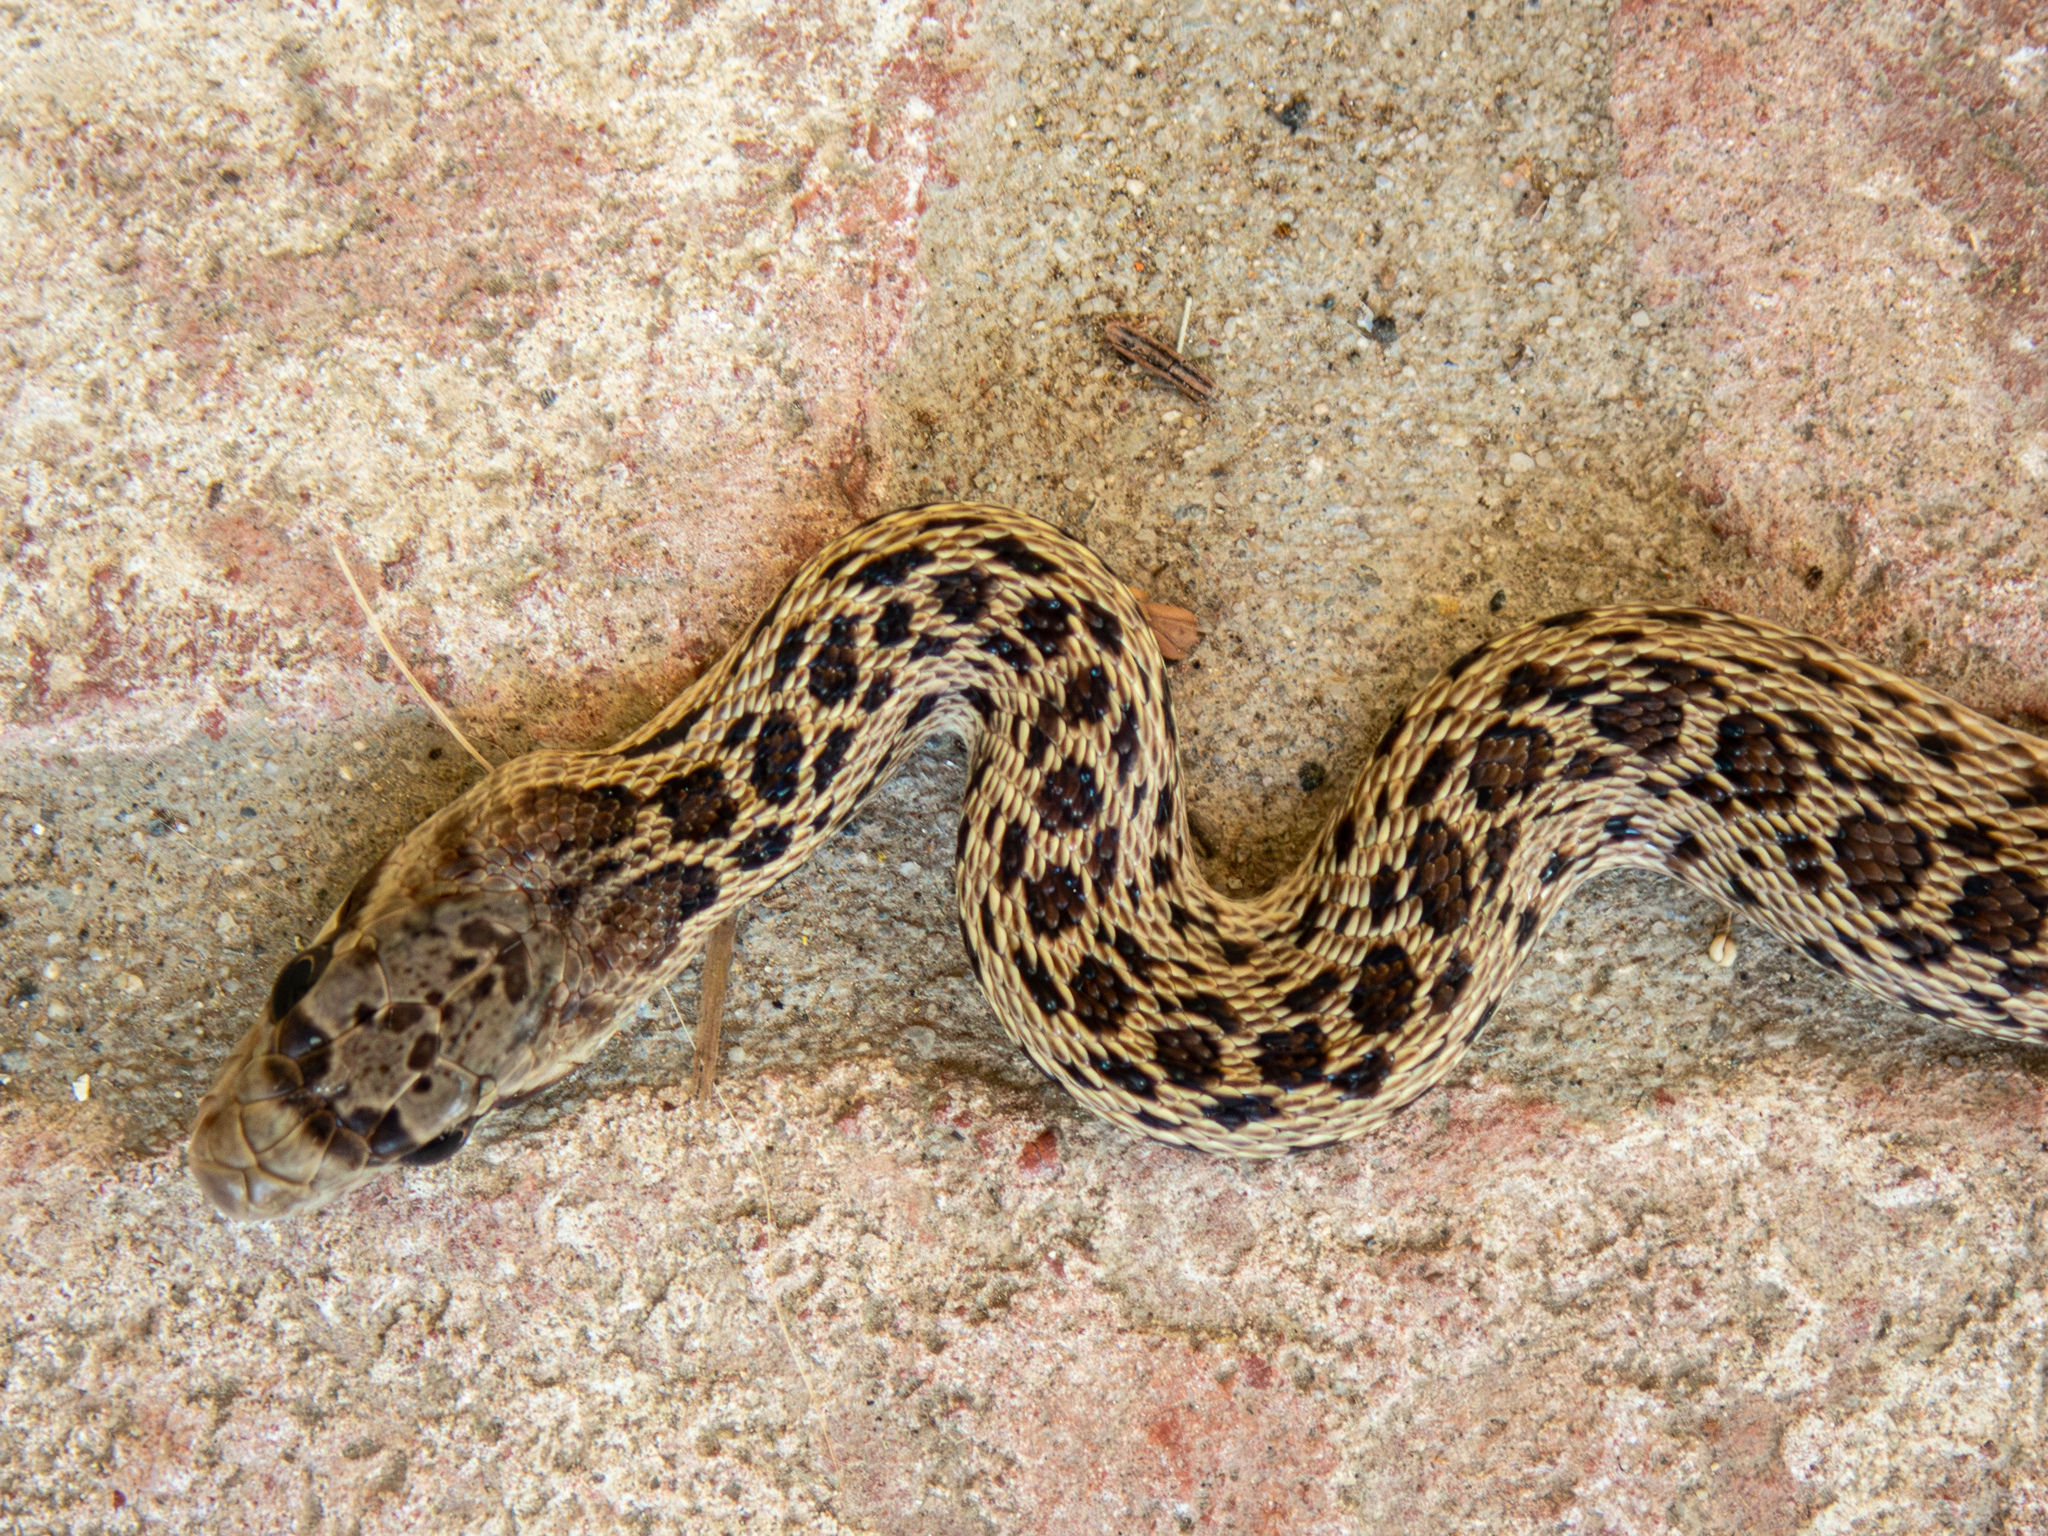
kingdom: Animalia
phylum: Chordata
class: Squamata
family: Colubridae
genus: Pituophis
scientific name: Pituophis catenifer
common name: Gopher snake
